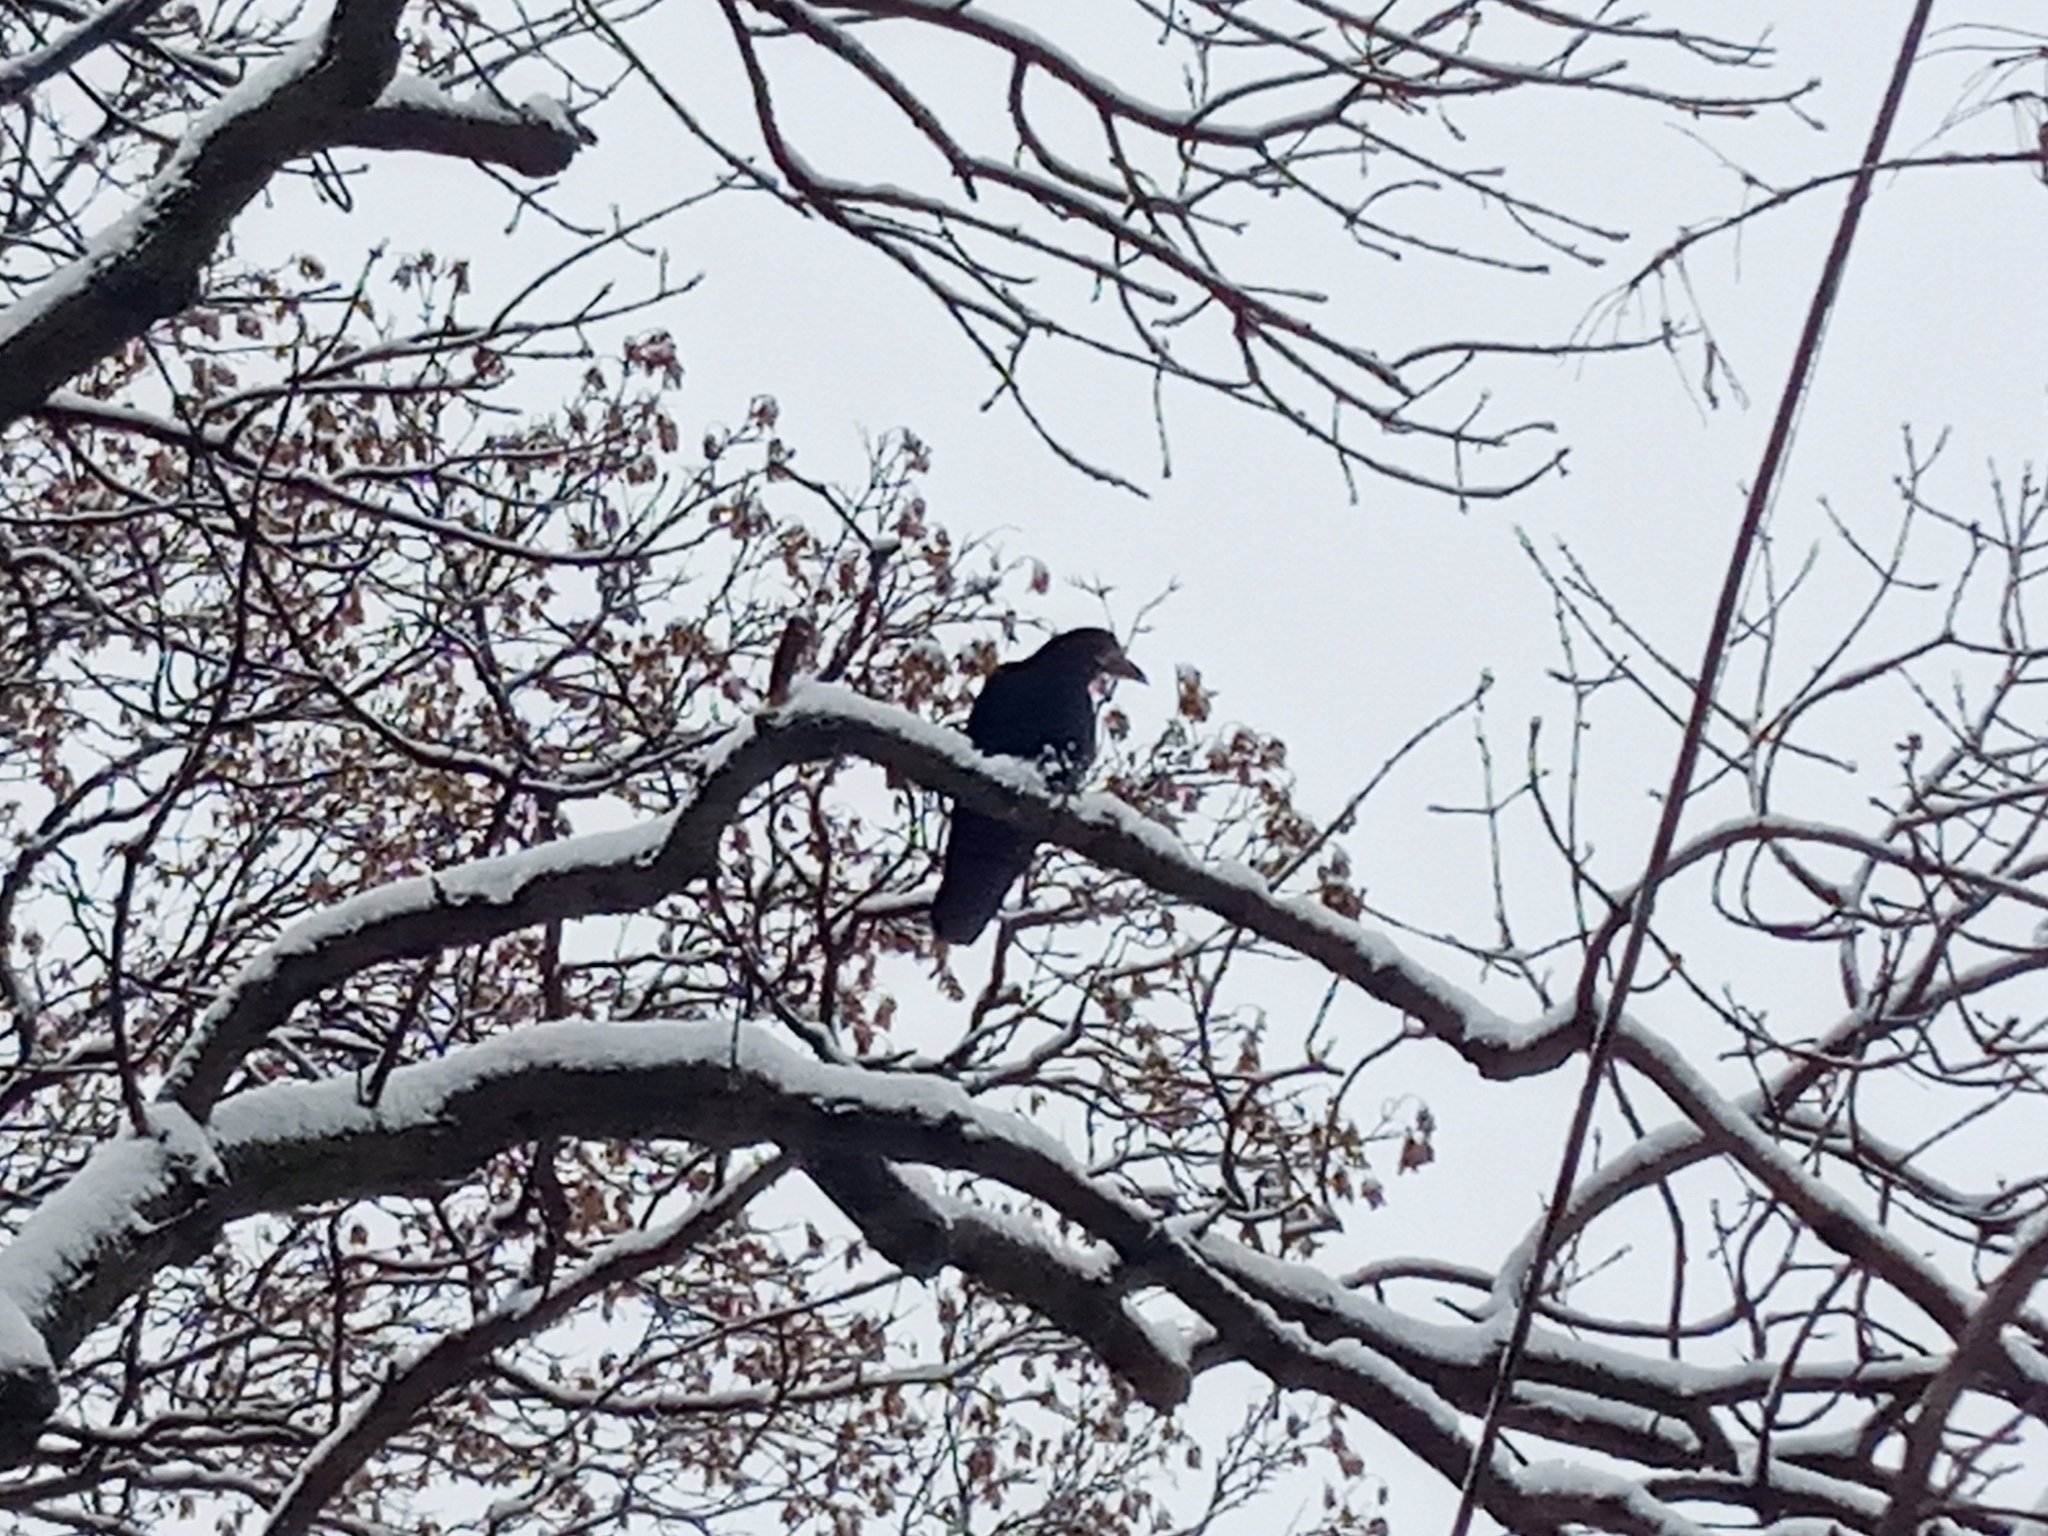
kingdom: Animalia
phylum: Chordata
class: Aves
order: Passeriformes
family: Corvidae
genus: Corvus
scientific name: Corvus frugilegus
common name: Rook
